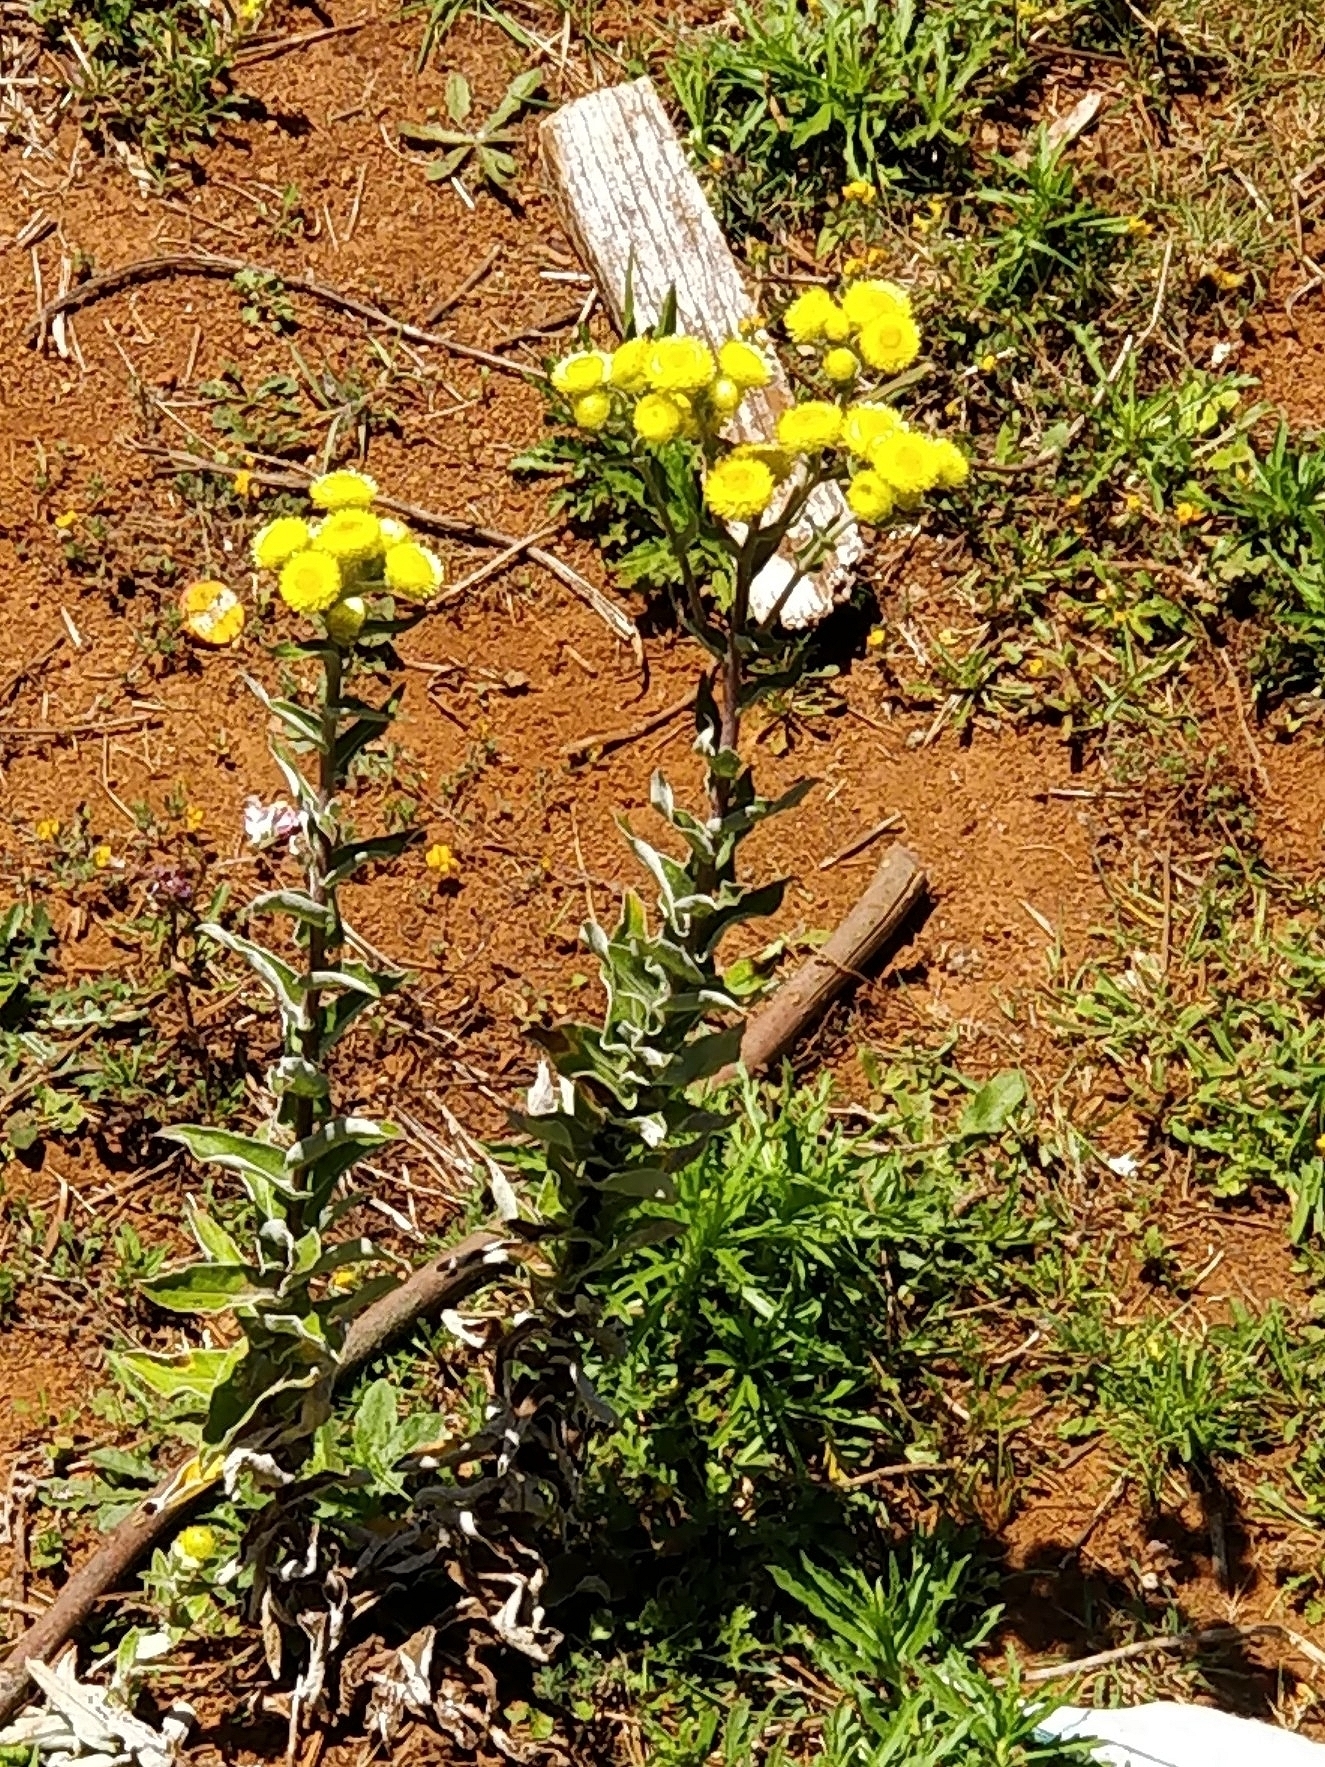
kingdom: Plantae
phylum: Tracheophyta
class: Magnoliopsida
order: Asterales
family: Asteraceae
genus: Helichrysum
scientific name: Helichrysum foetidum
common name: Stinking everlasting
